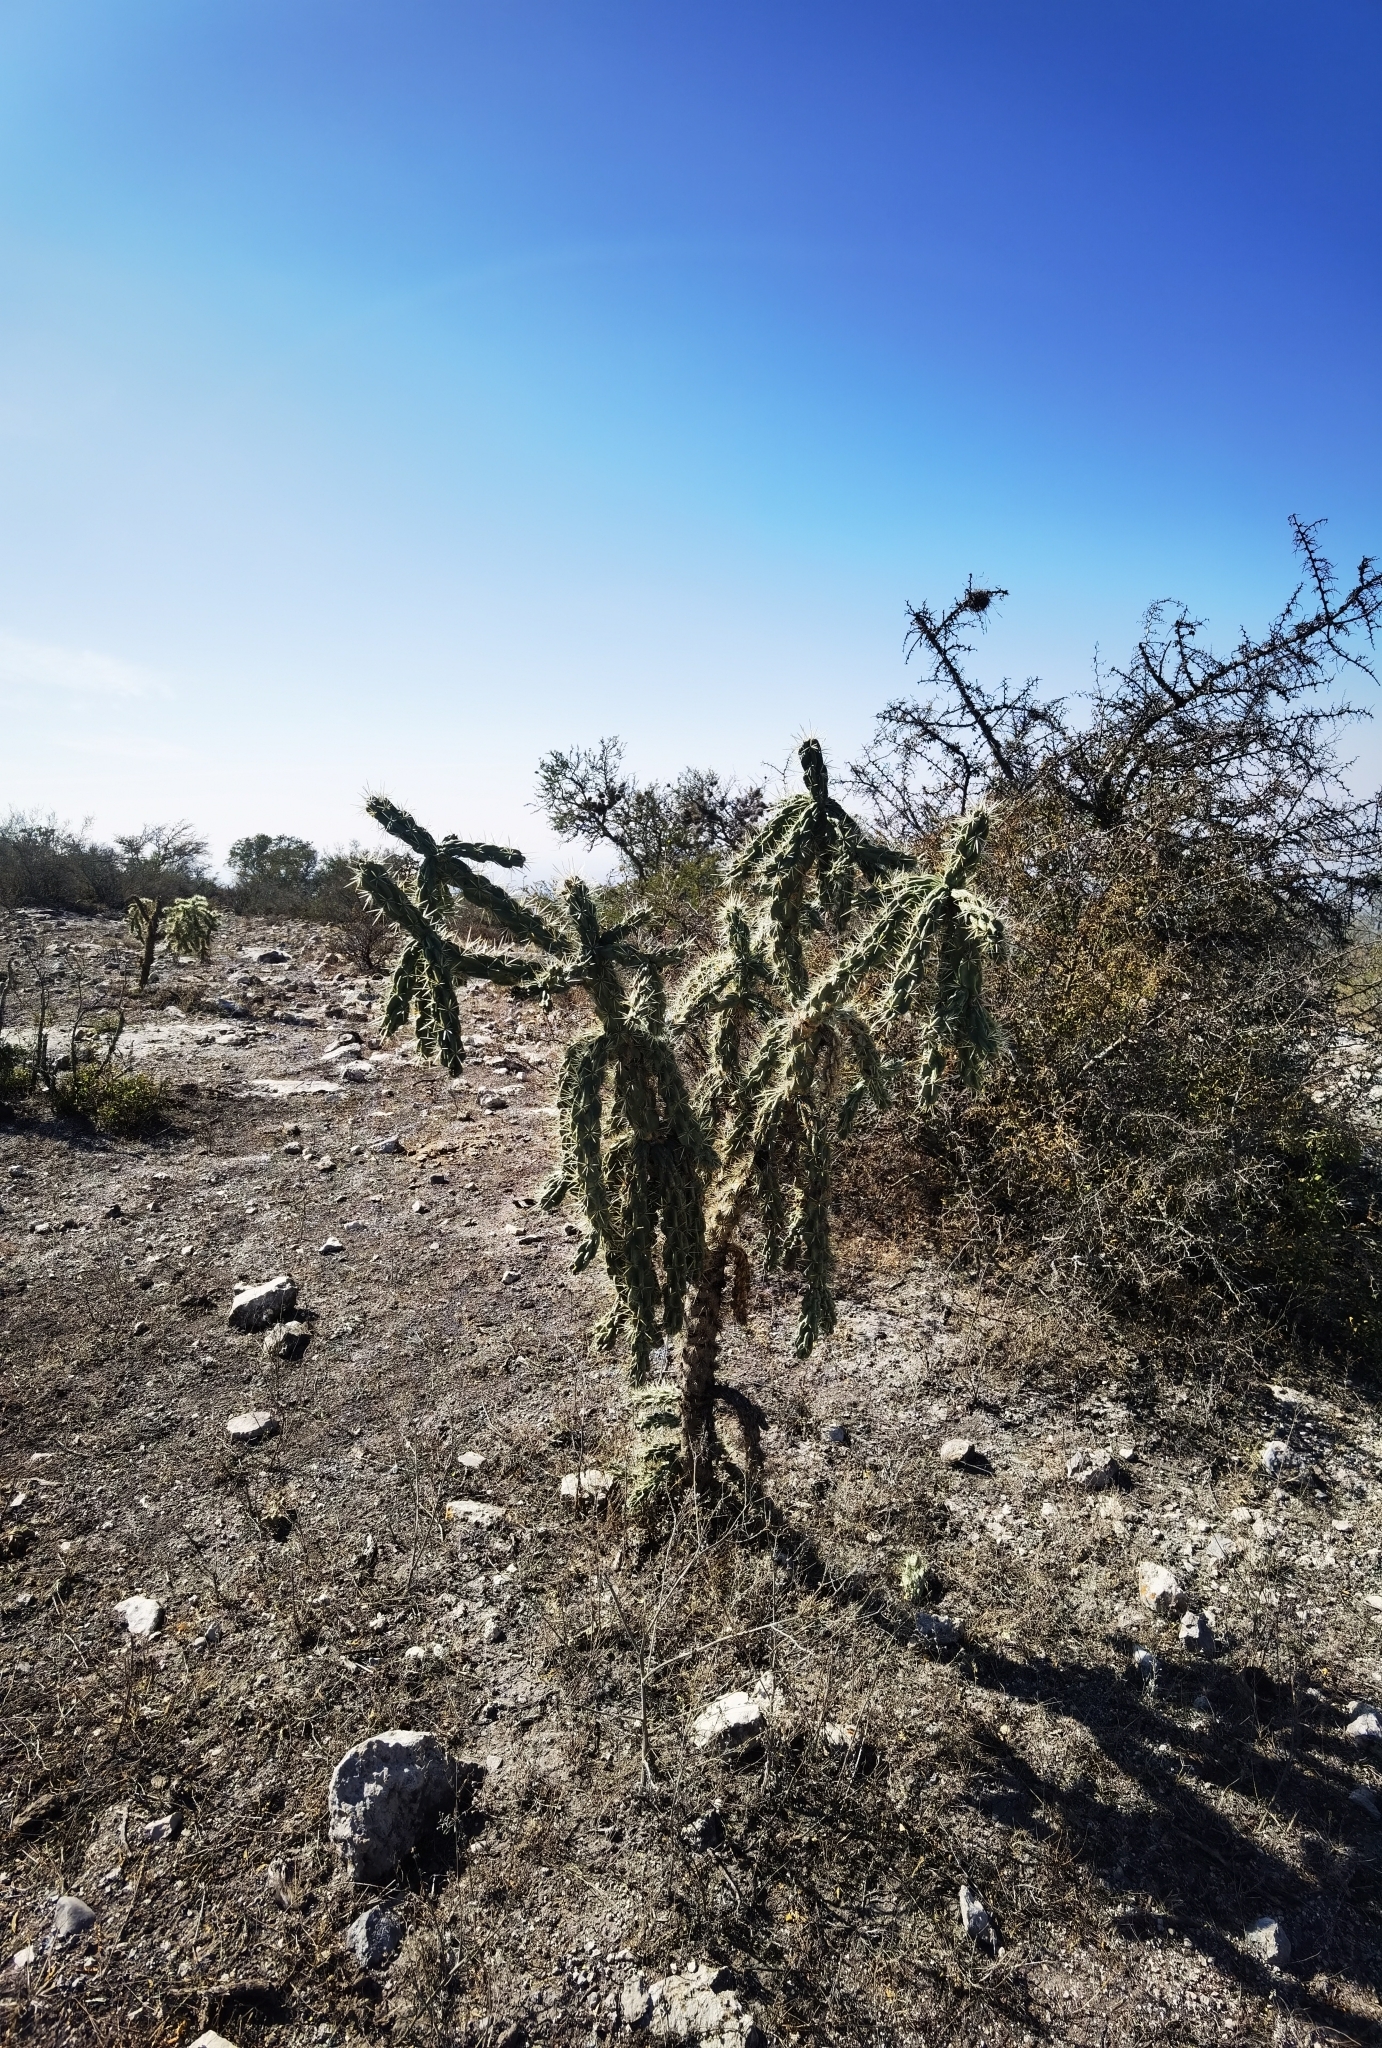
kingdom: Plantae
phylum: Tracheophyta
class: Magnoliopsida
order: Caryophyllales
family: Cactaceae
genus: Cylindropuntia
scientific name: Cylindropuntia imbricata
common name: Candelabrum cactus
